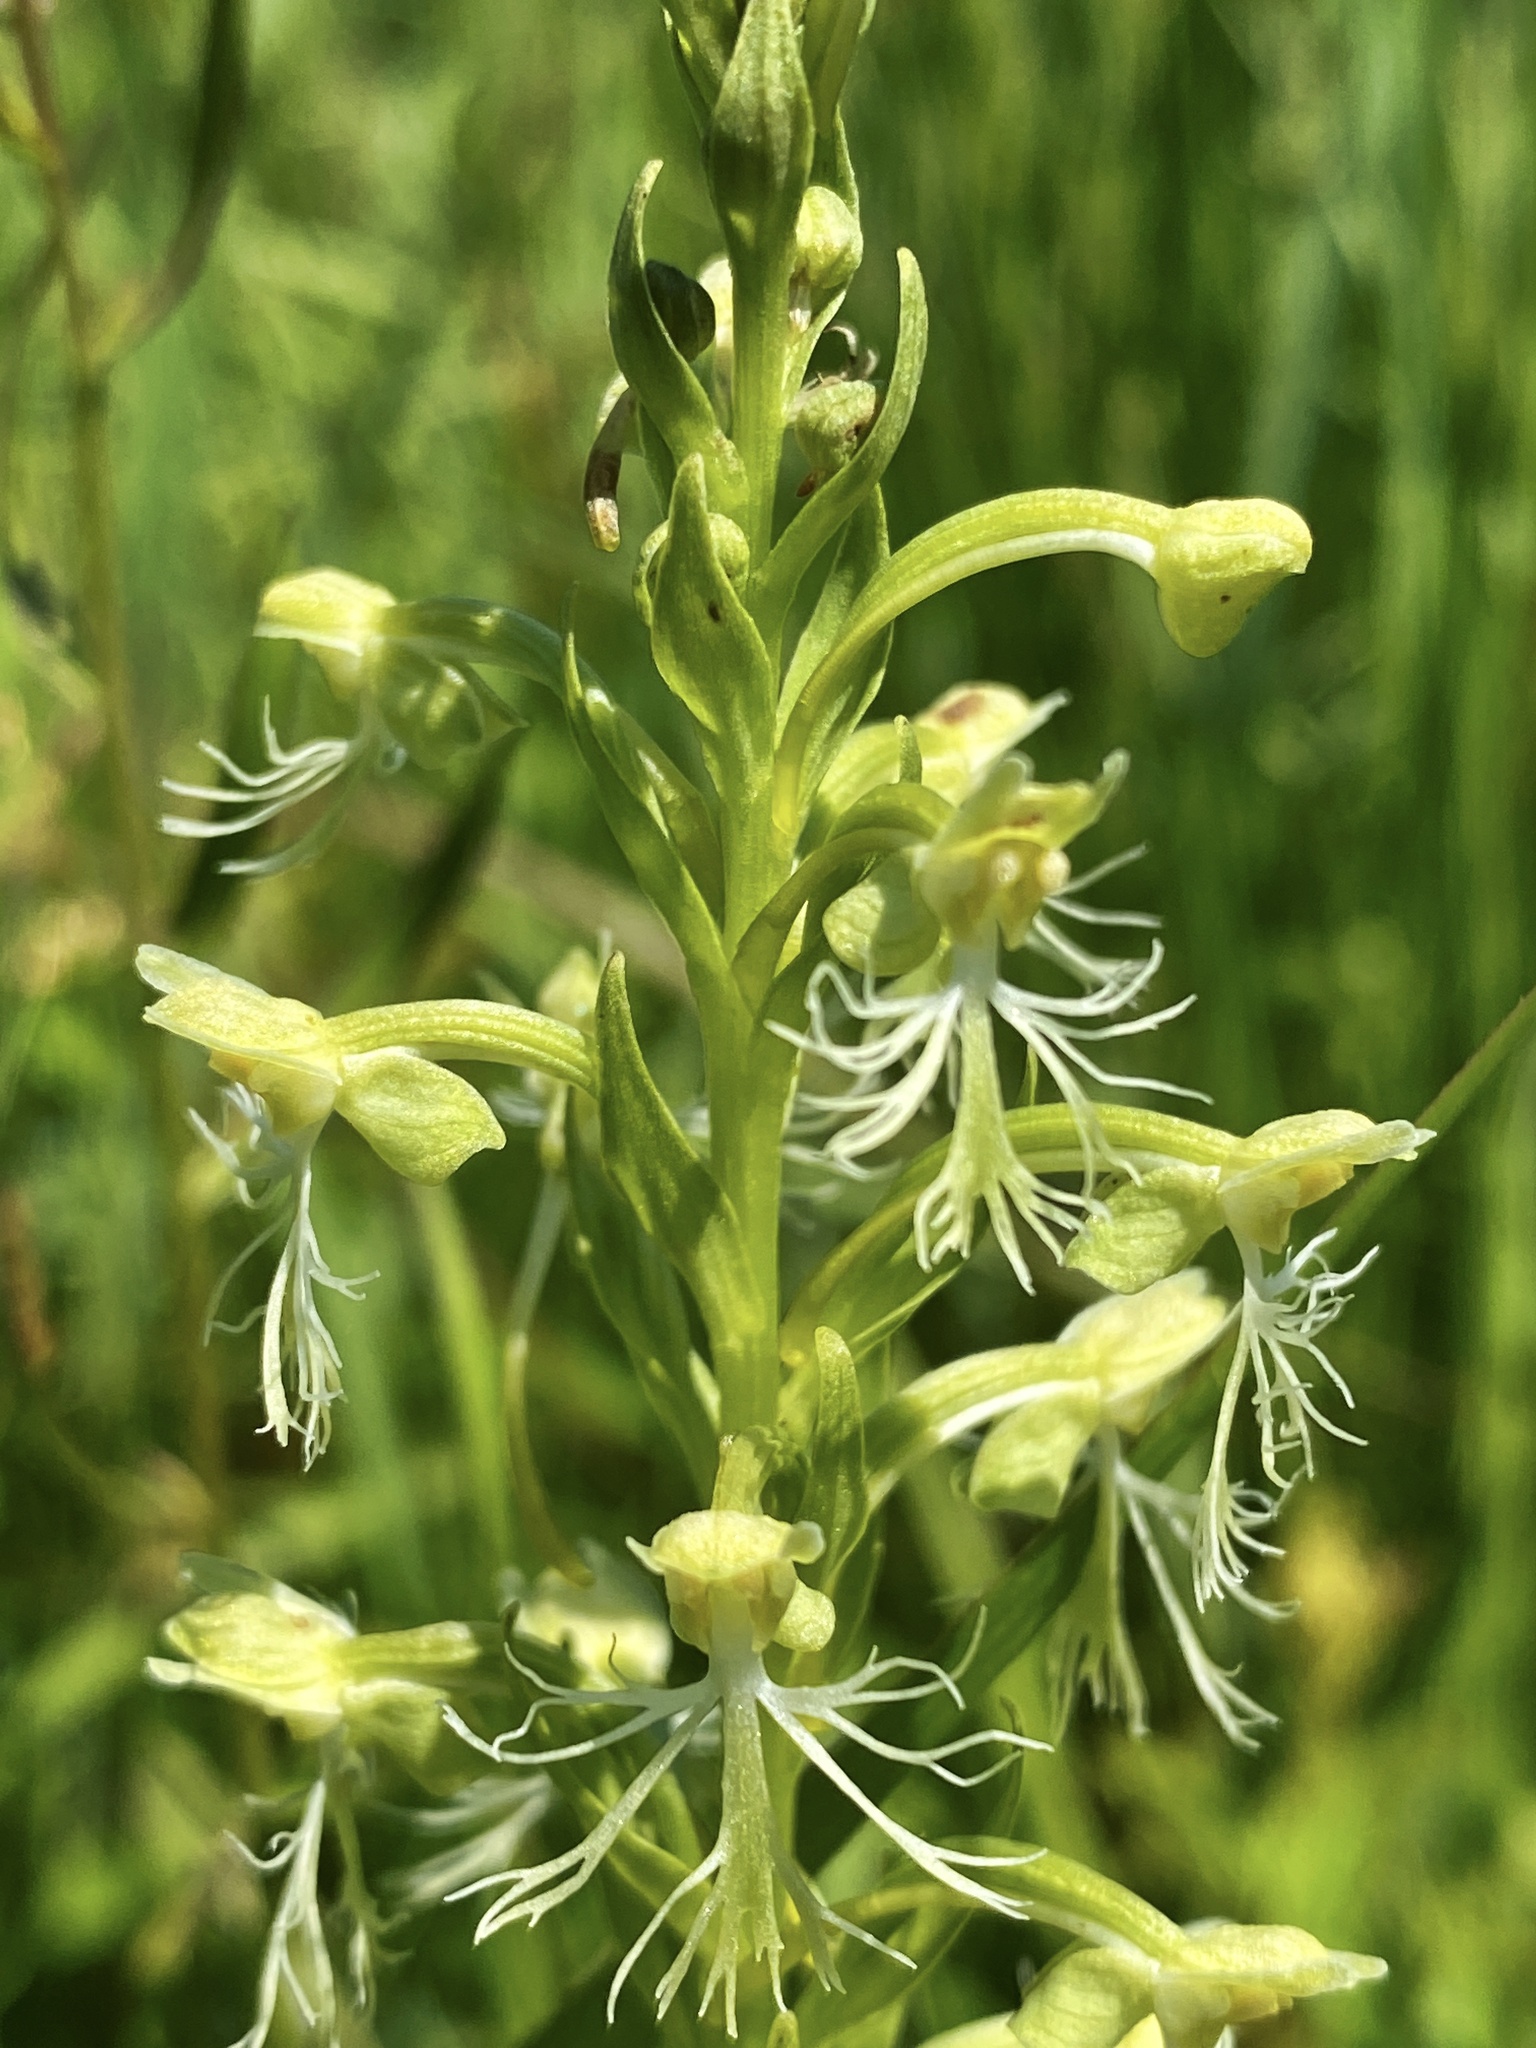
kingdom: Plantae
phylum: Tracheophyta
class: Liliopsida
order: Asparagales
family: Orchidaceae
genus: Platanthera
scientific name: Platanthera lacera
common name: Green fringed orchid
